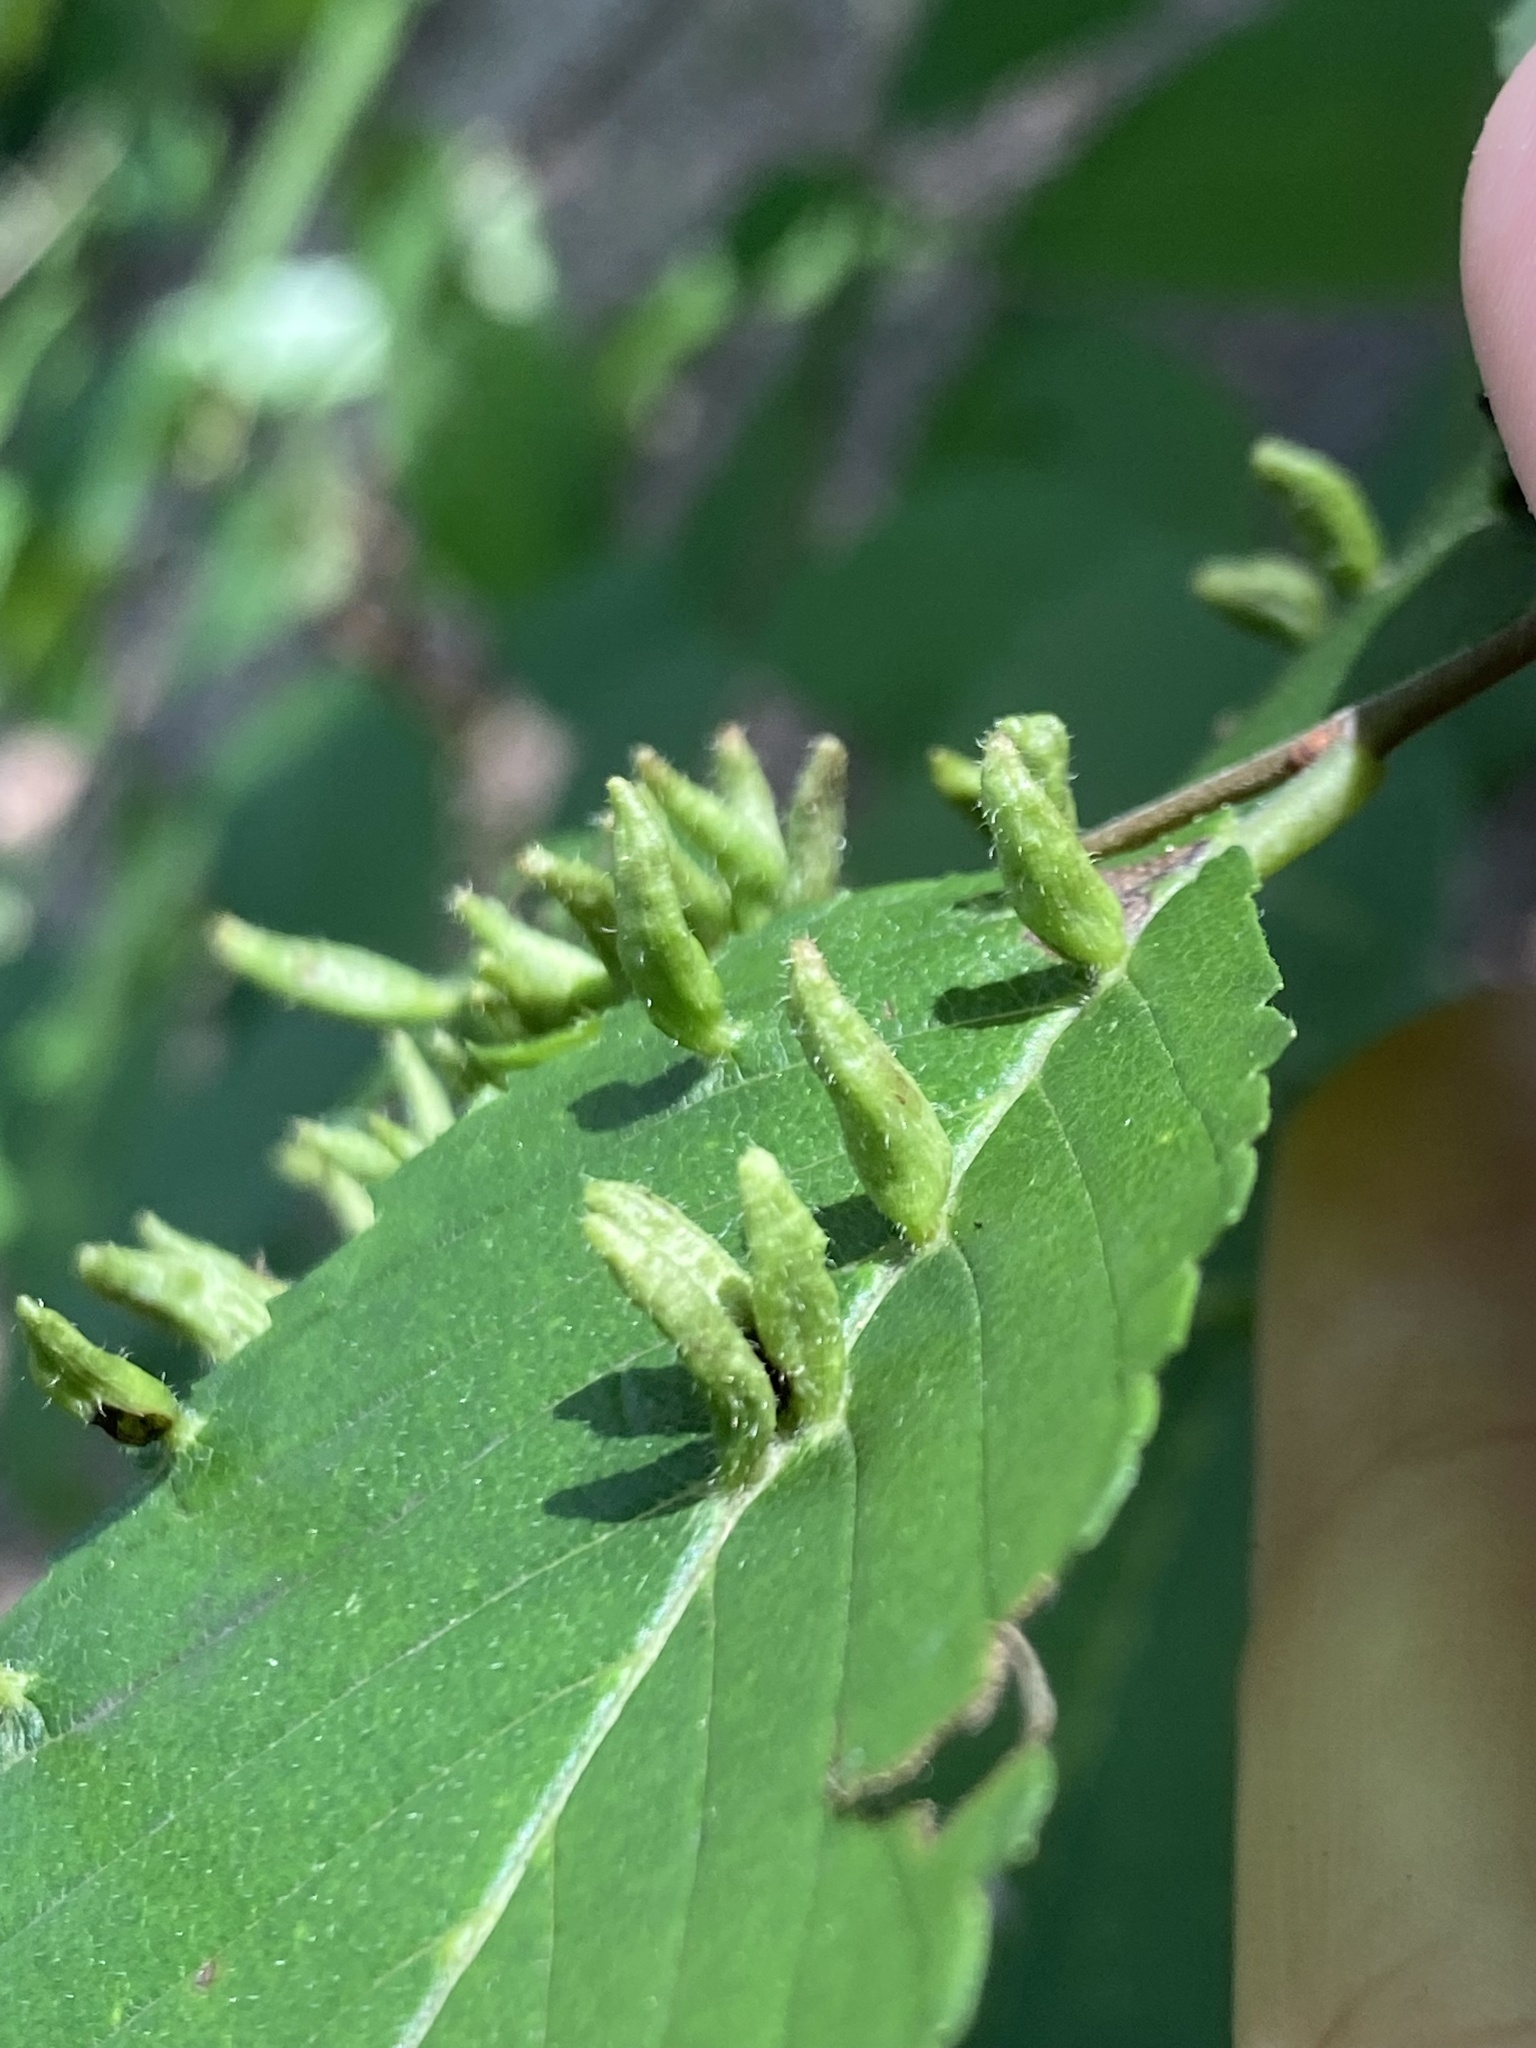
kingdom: Animalia
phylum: Arthropoda
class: Arachnida
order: Trombidiformes
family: Eriophyidae
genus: Aceria
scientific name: Aceria
